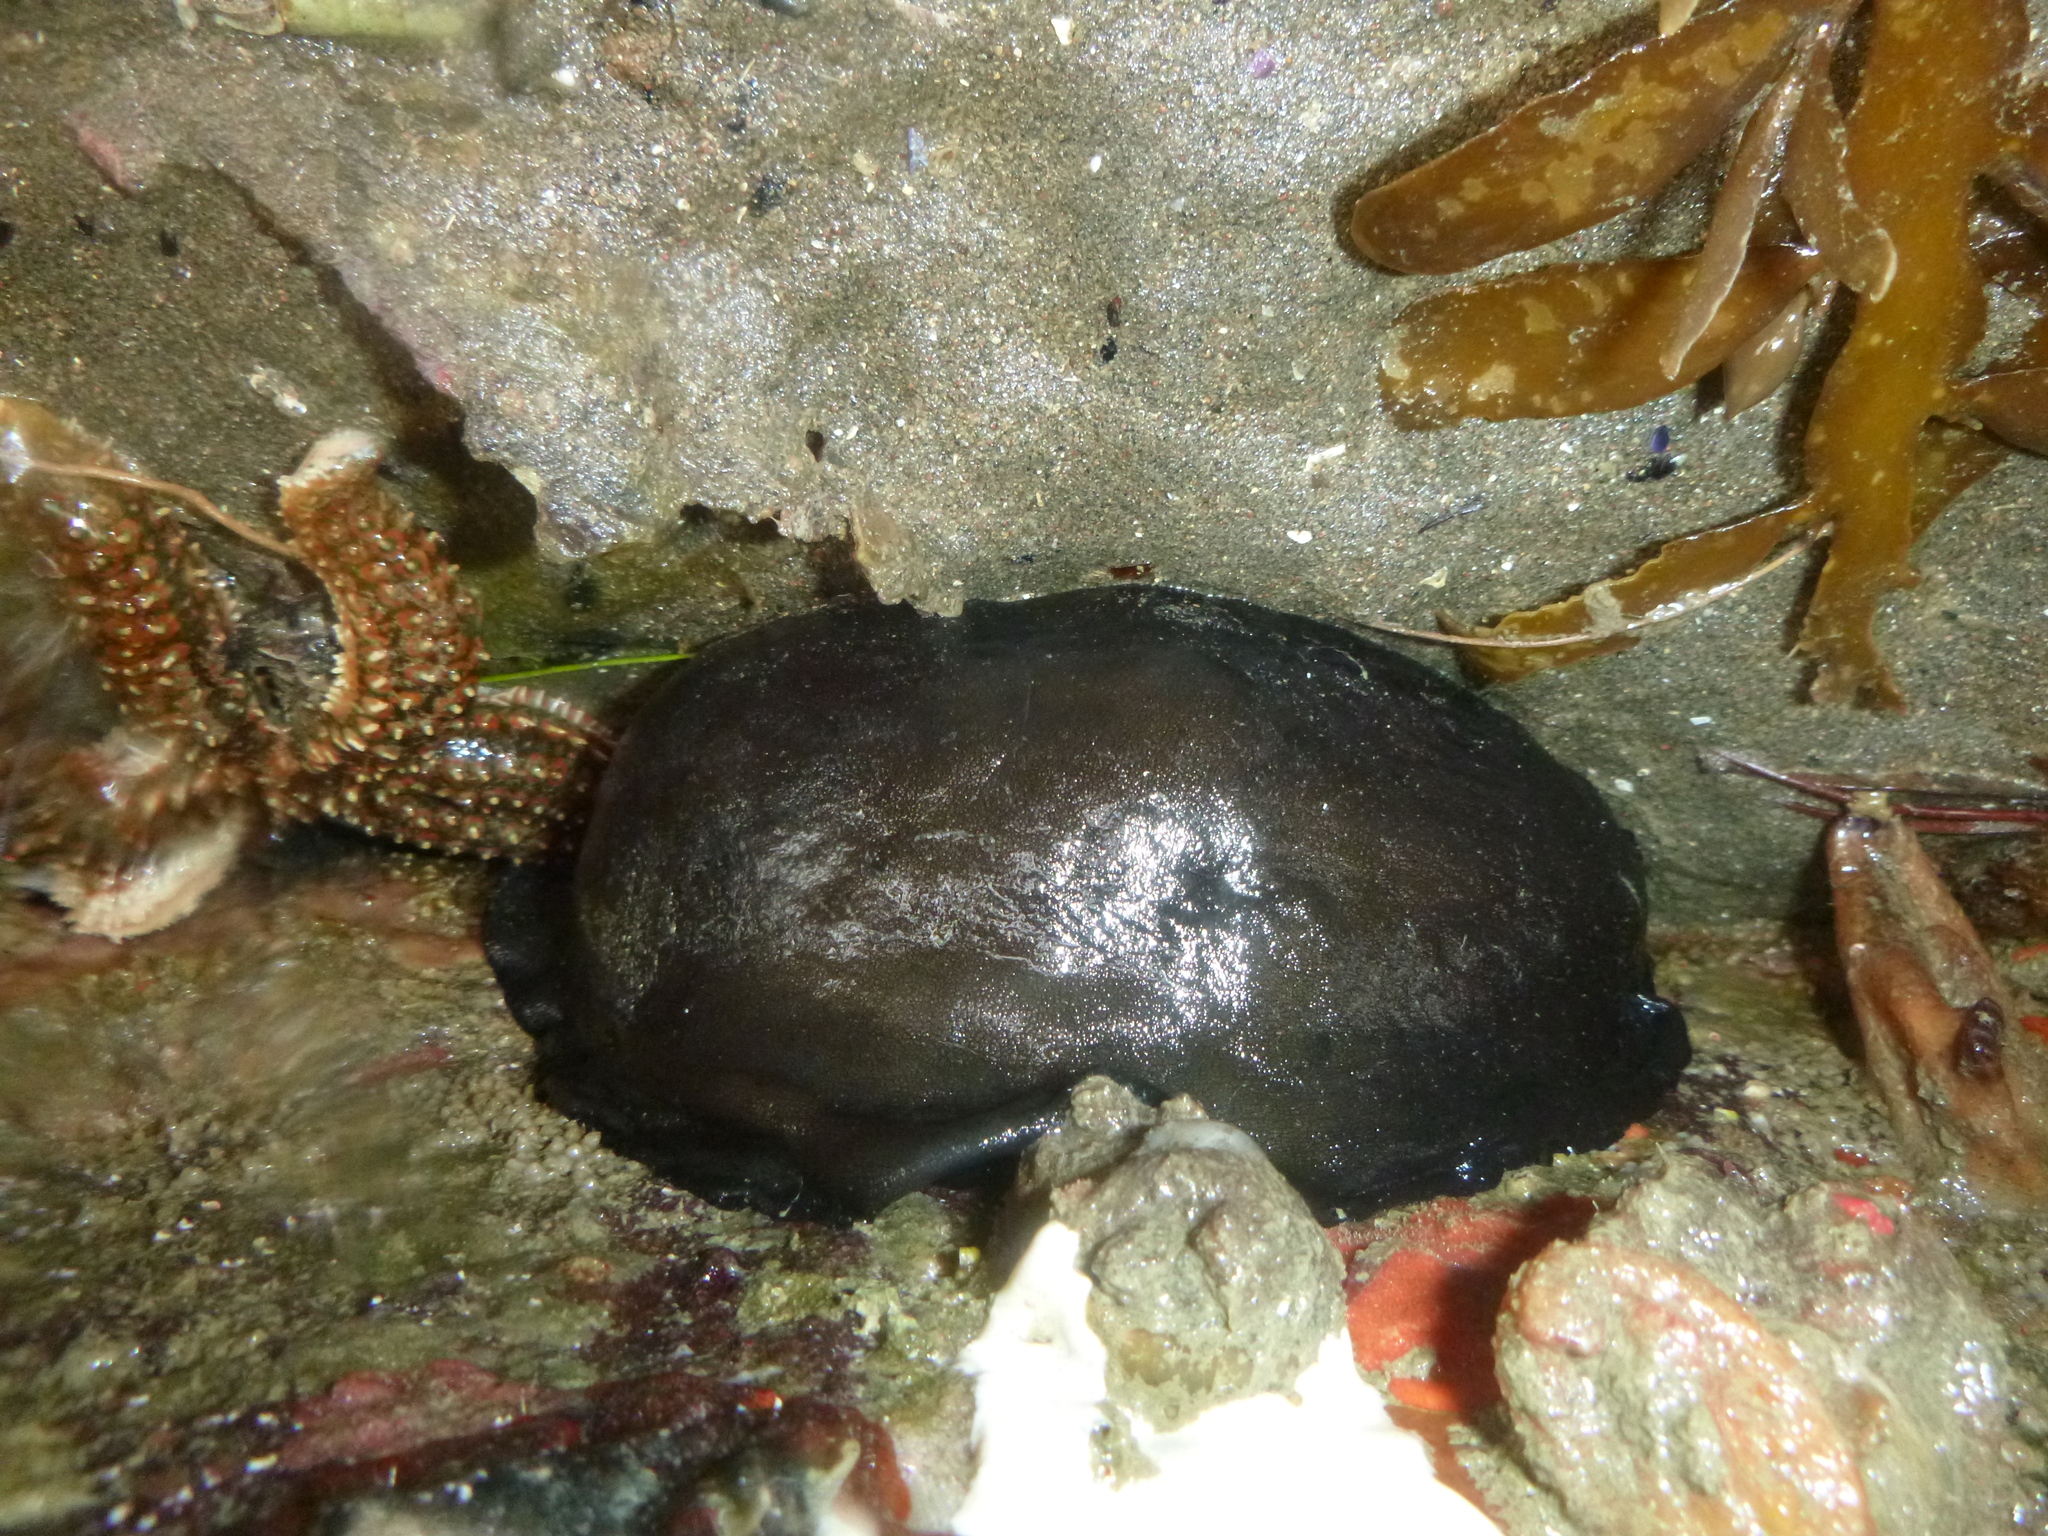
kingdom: Animalia
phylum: Mollusca
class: Gastropoda
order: Lepetellida
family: Fissurellidae
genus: Scutus
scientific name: Scutus breviculus
